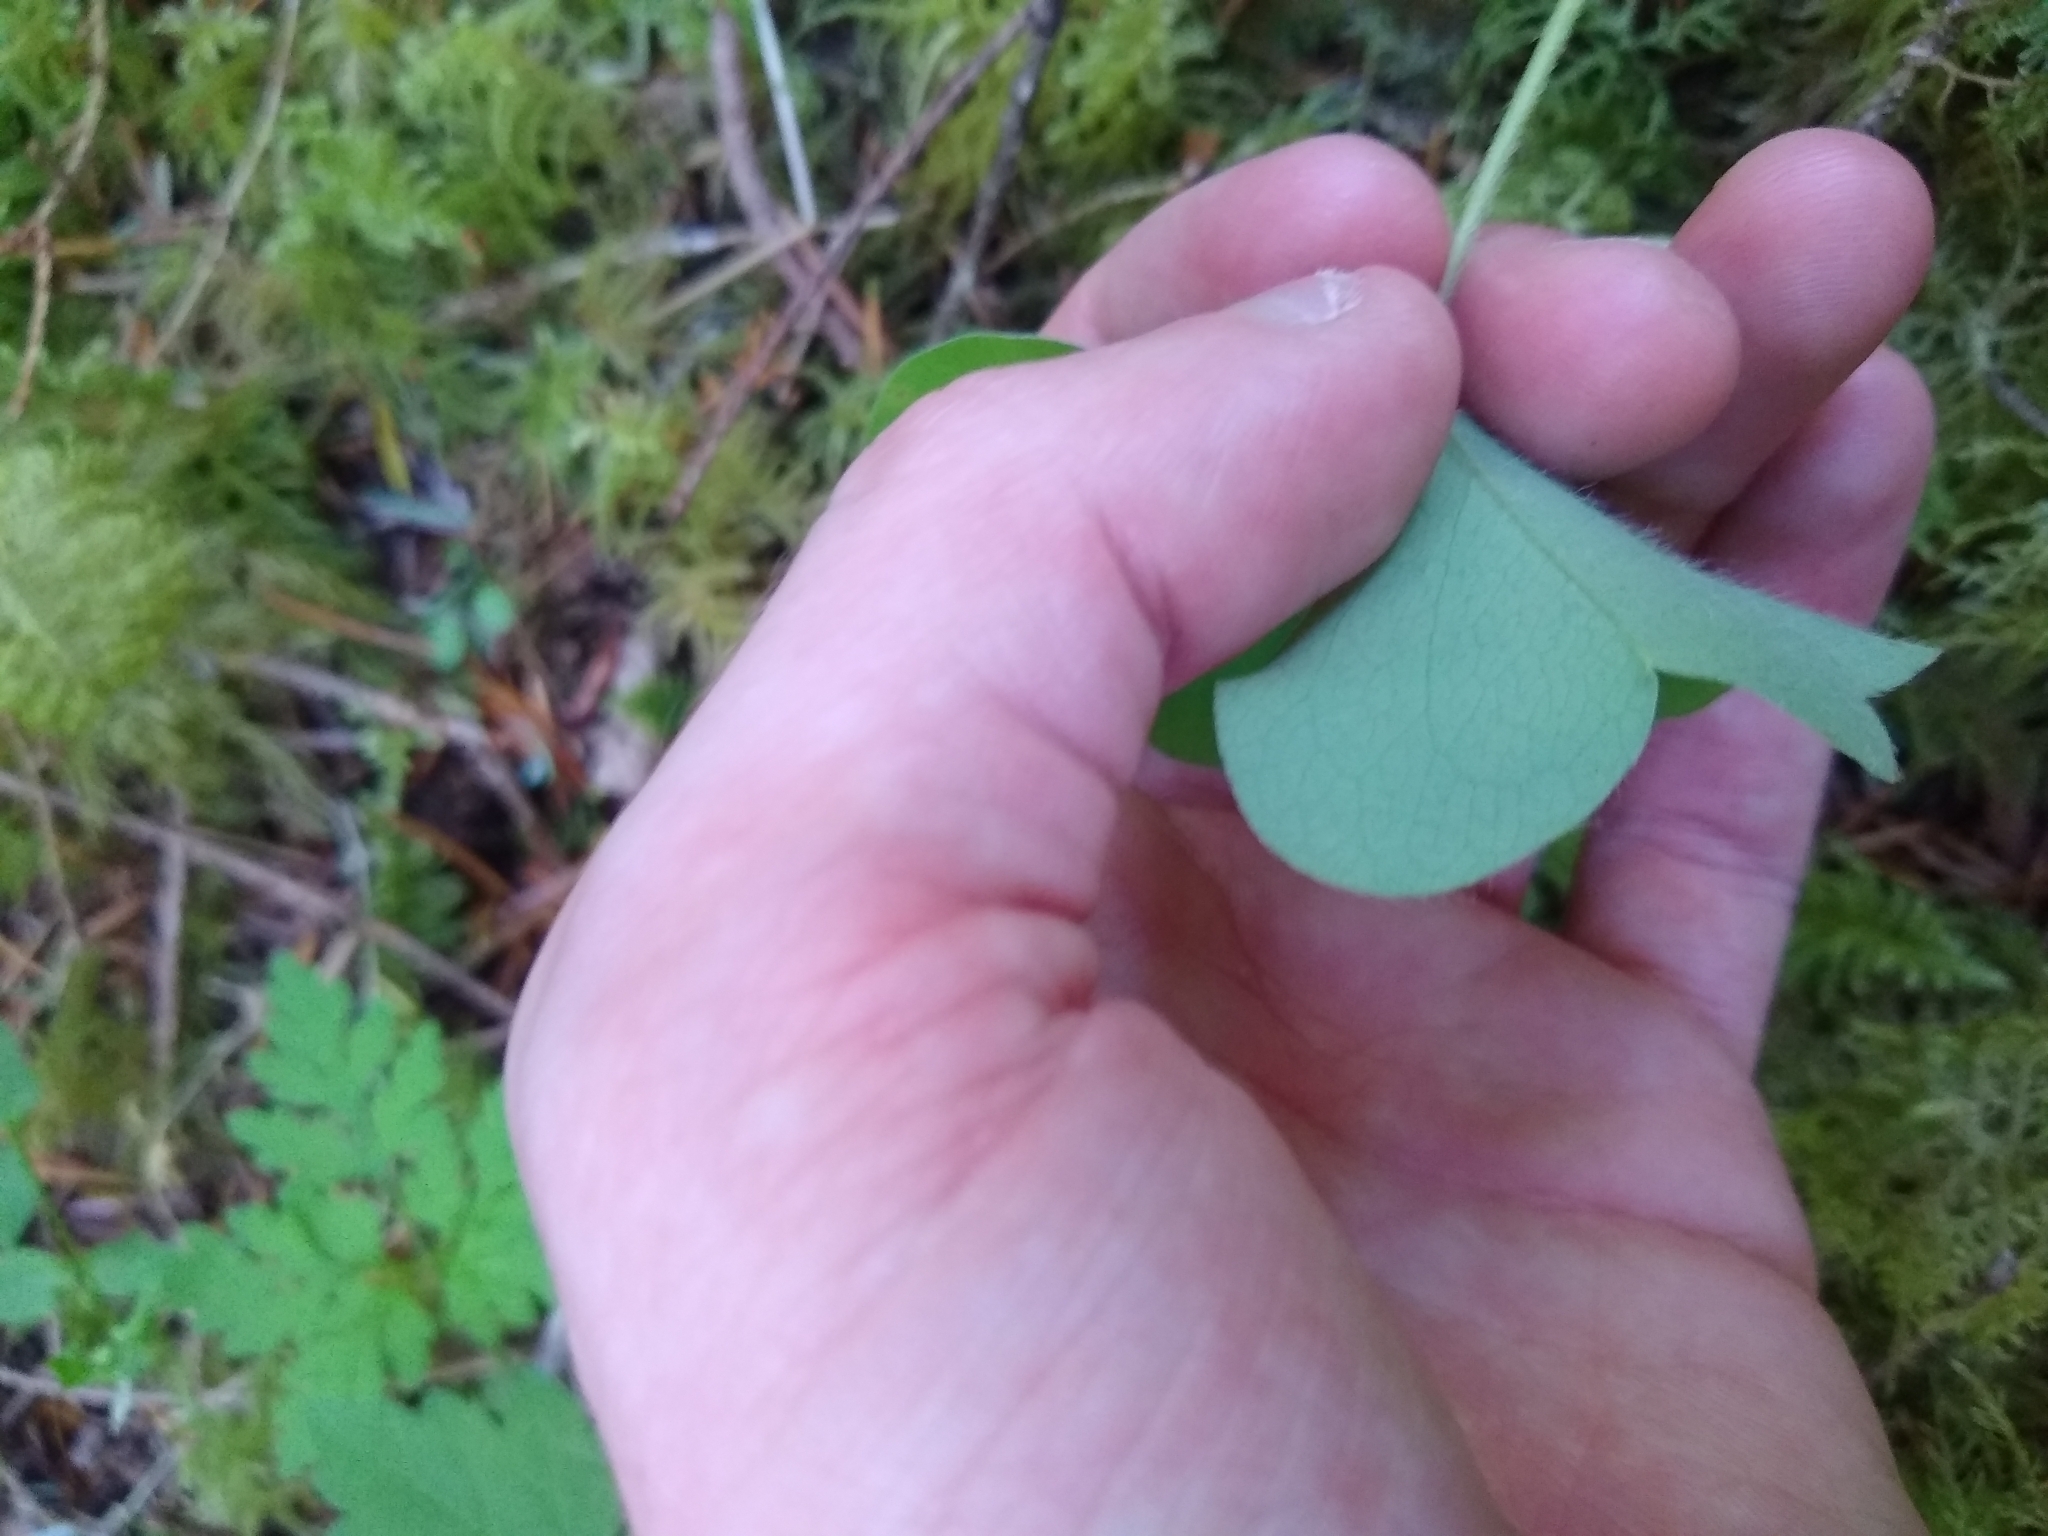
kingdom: Plantae
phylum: Tracheophyta
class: Magnoliopsida
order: Oxalidales
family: Oxalidaceae
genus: Oxalis
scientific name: Oxalis oregana
